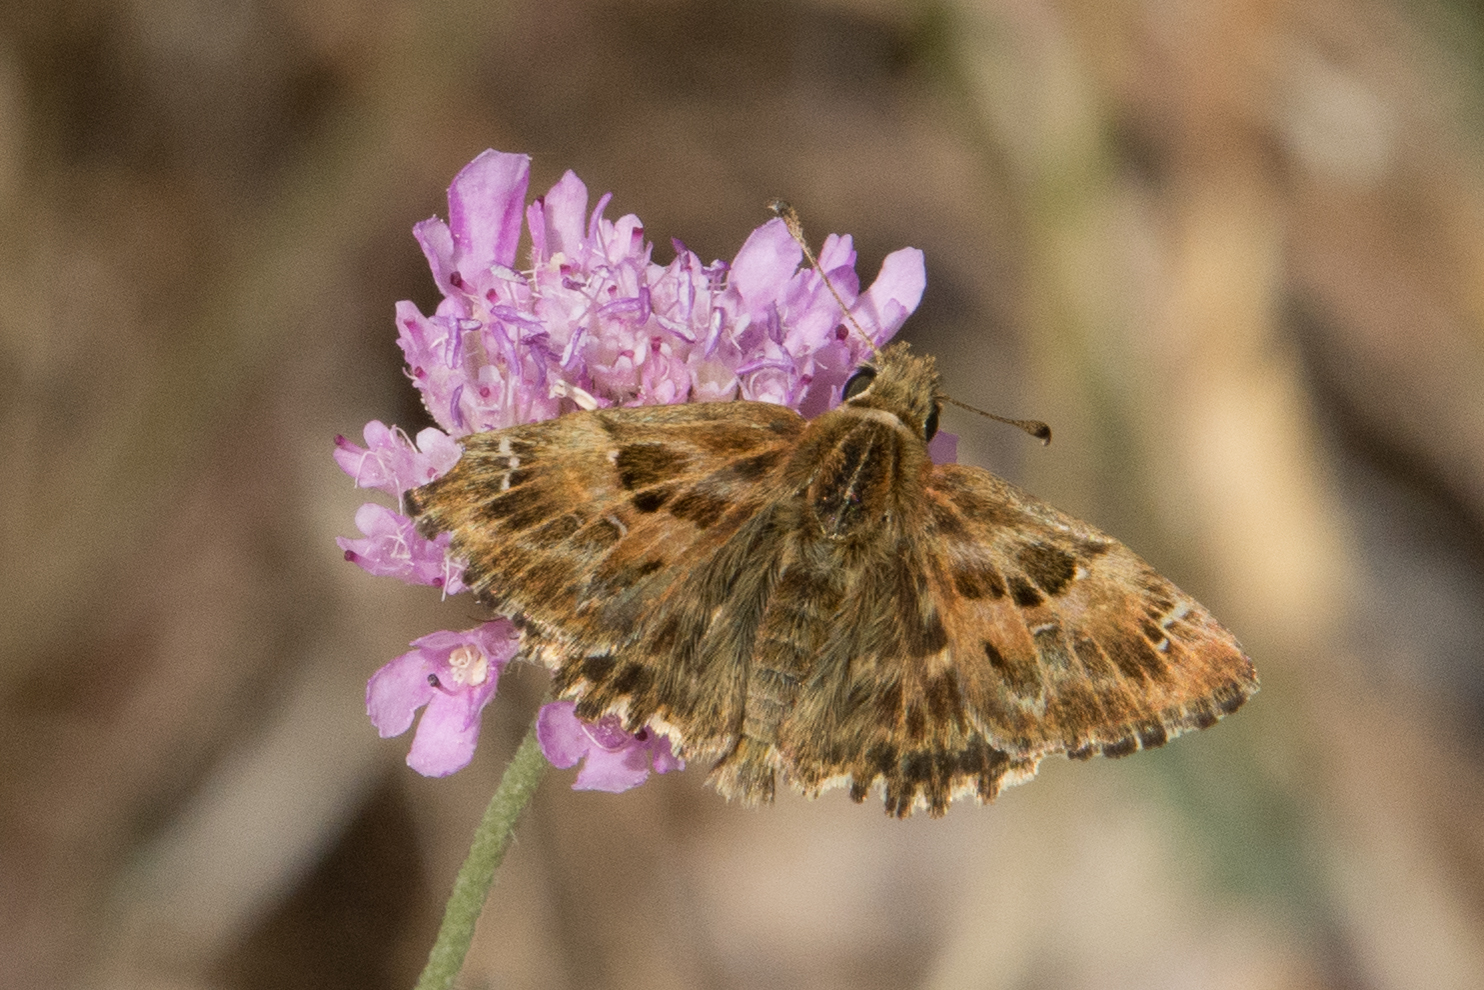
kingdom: Animalia
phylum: Arthropoda
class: Insecta
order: Lepidoptera
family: Hesperiidae
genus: Carcharodus
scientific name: Carcharodus alceae
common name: Mallow skipper
